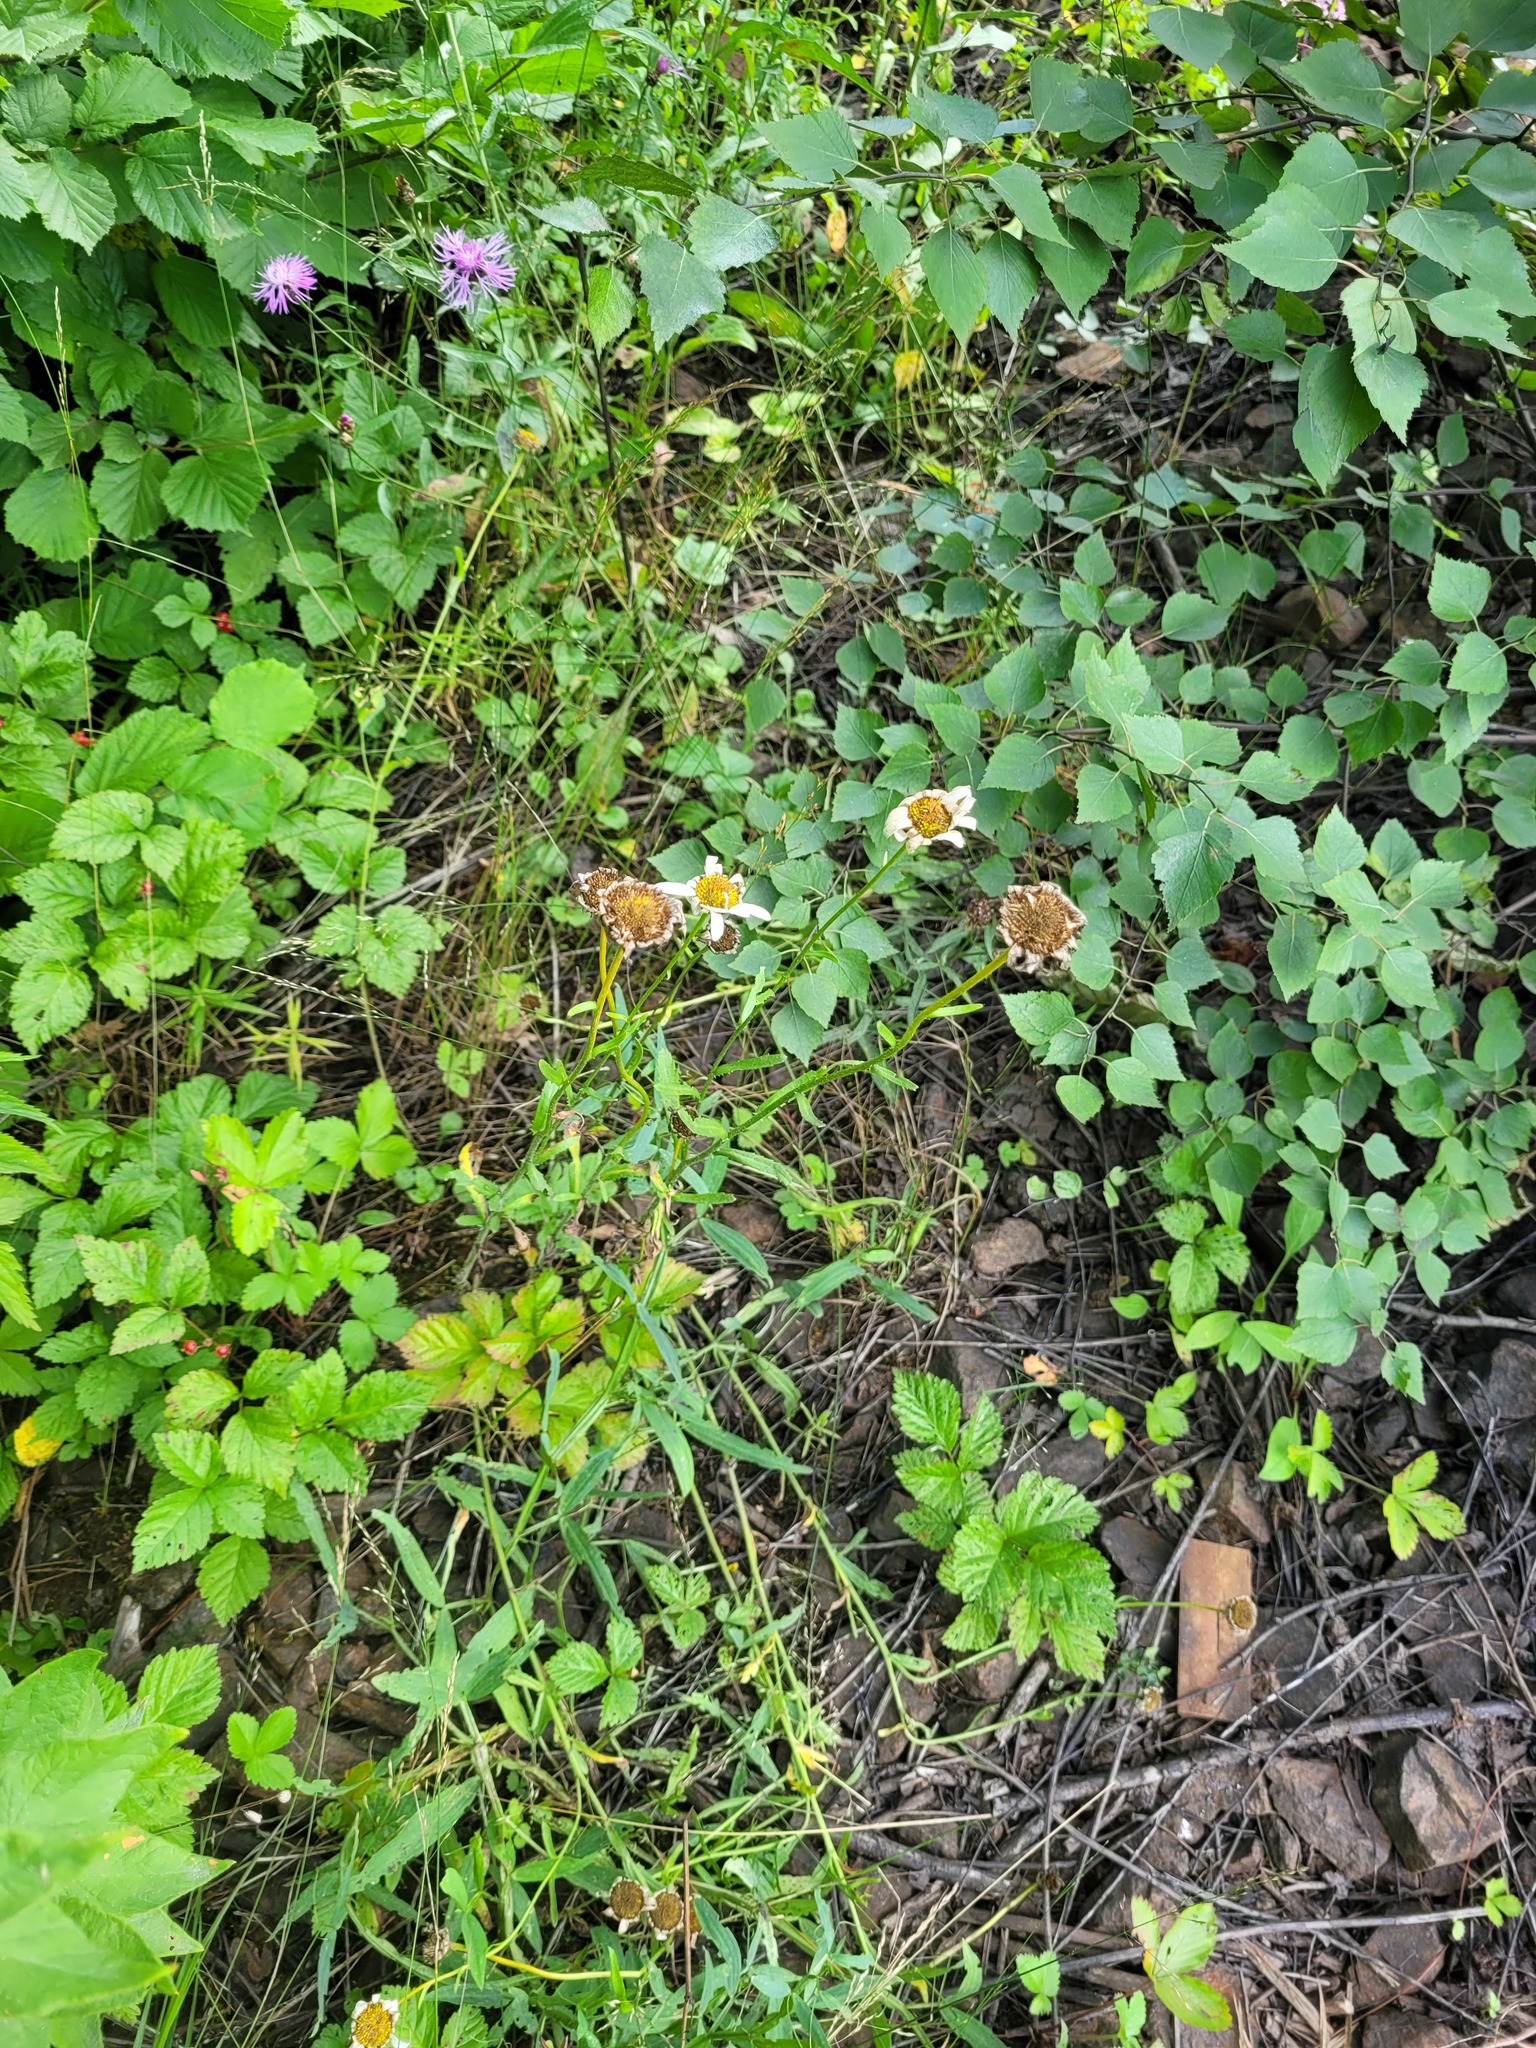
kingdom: Plantae
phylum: Tracheophyta
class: Magnoliopsida
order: Asterales
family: Asteraceae
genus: Leucanthemum
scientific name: Leucanthemum vulgare
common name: Oxeye daisy
